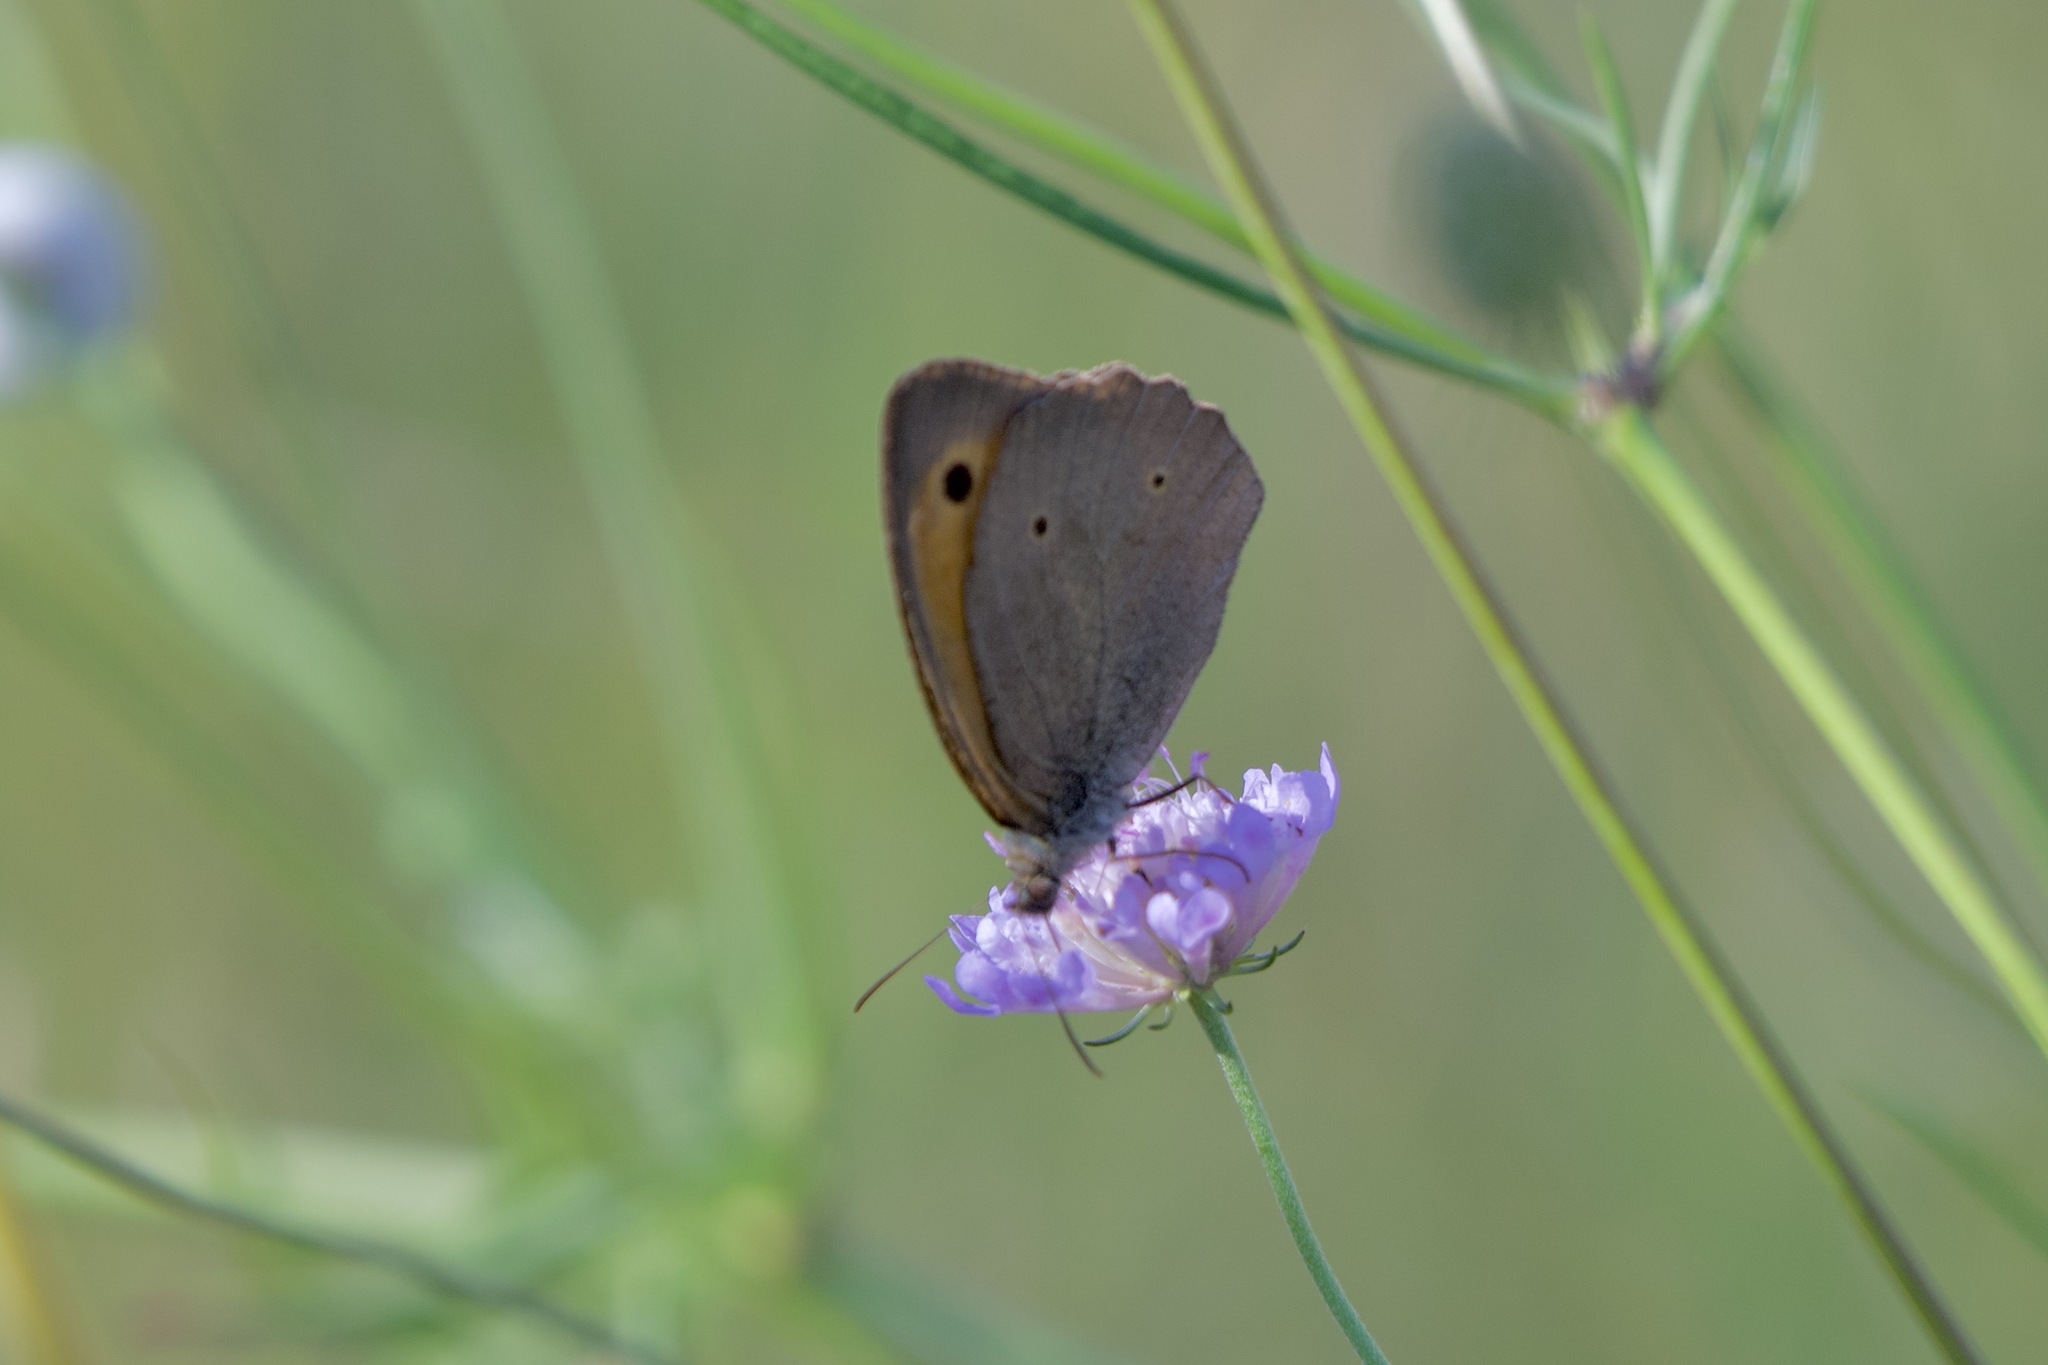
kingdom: Animalia
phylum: Arthropoda
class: Insecta
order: Lepidoptera
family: Nymphalidae
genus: Maniola
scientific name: Maniola jurtina
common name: Meadow brown
